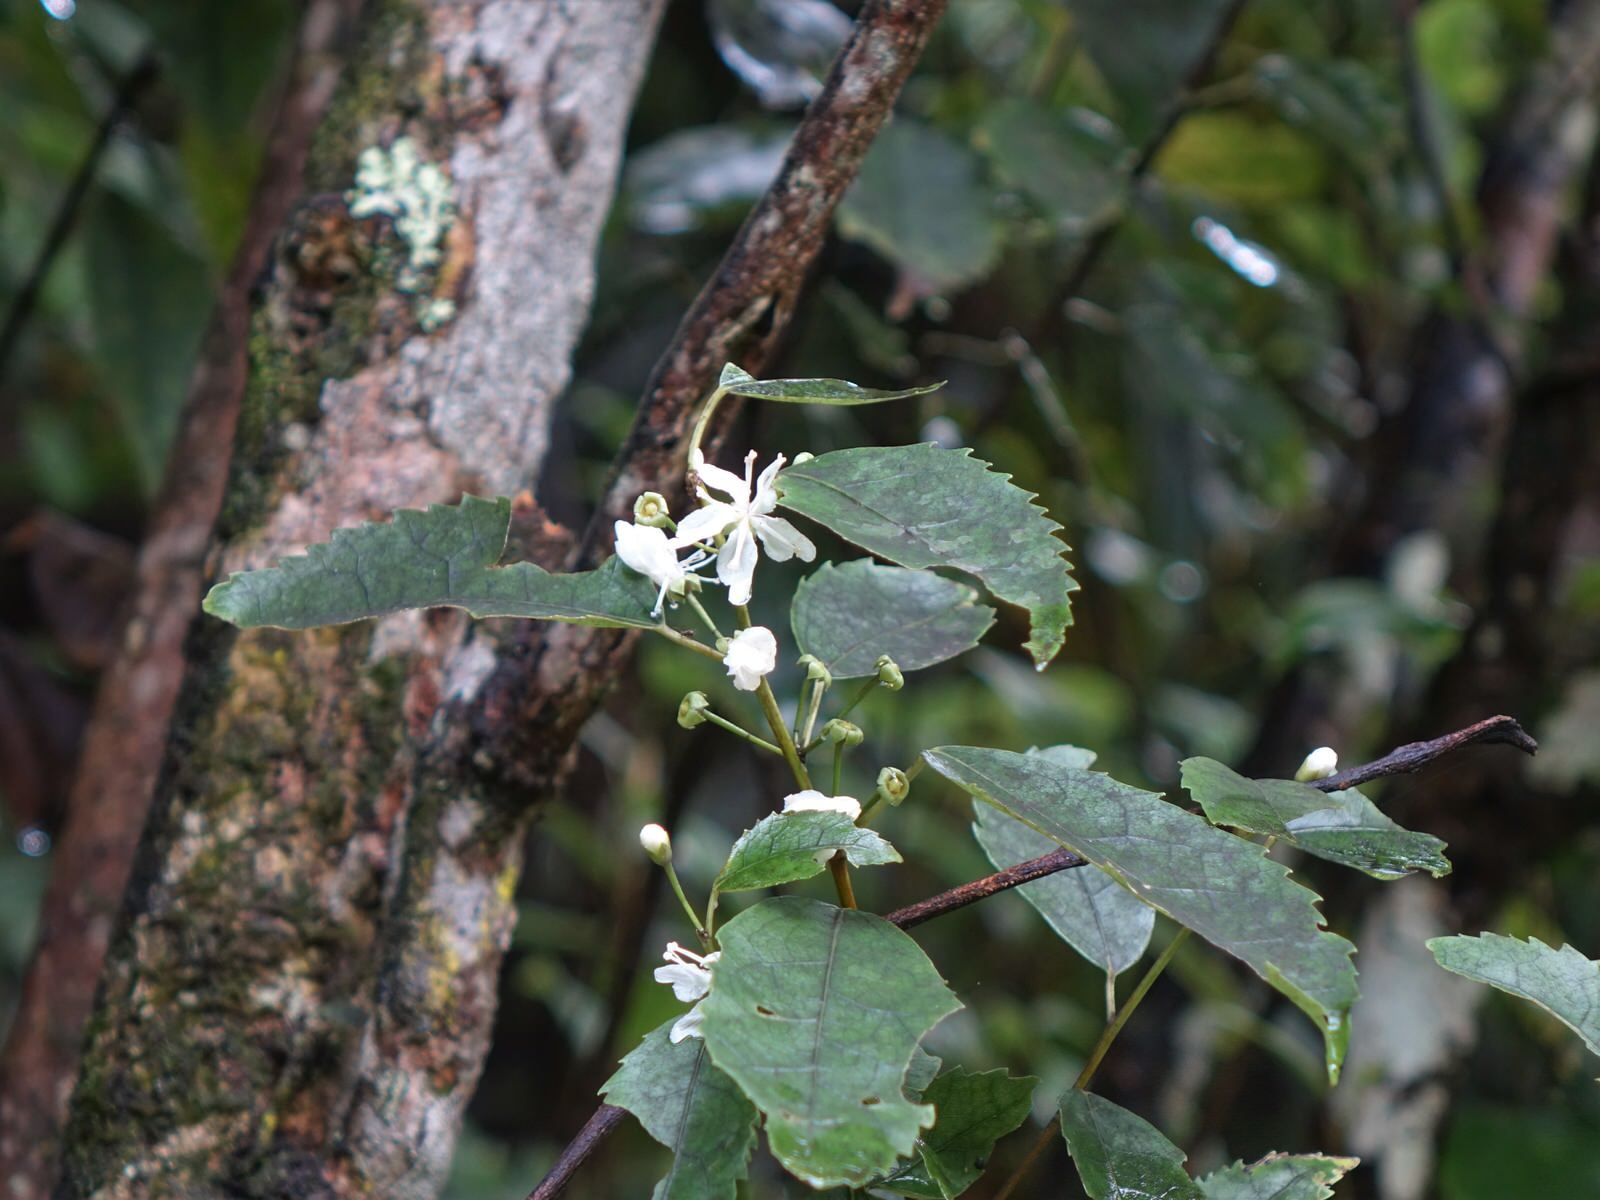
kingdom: Plantae
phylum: Tracheophyta
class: Magnoliopsida
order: Malvales
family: Malvaceae
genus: Hoheria
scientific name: Hoheria populnea
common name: Lacebark
